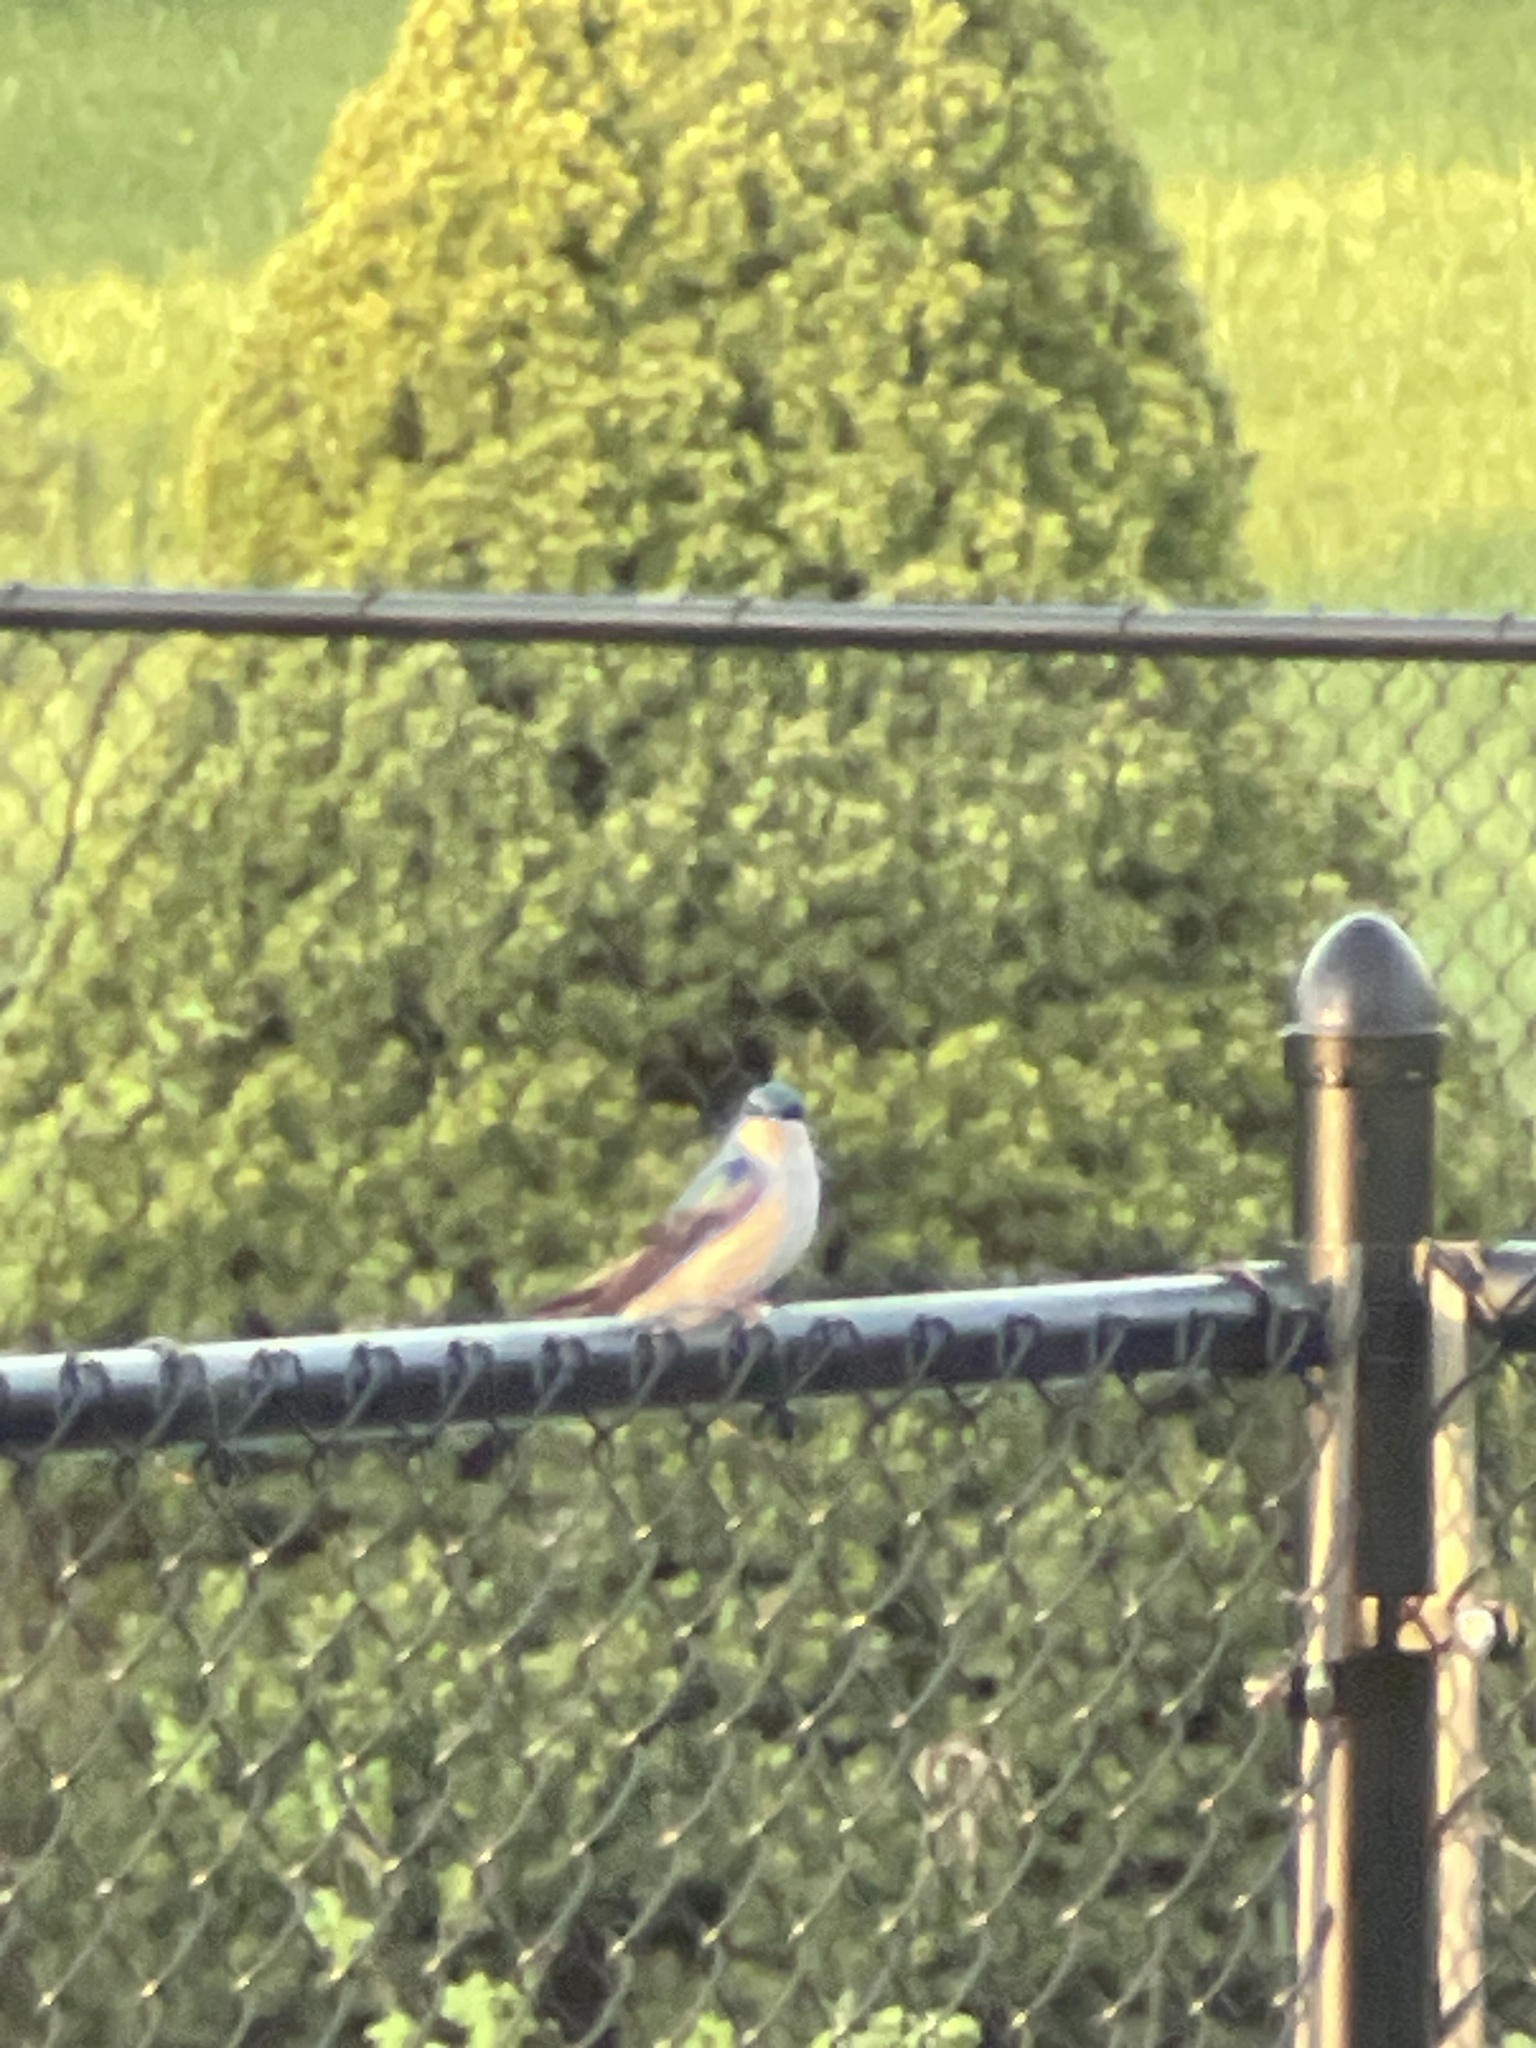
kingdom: Animalia
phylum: Chordata
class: Aves
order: Passeriformes
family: Hirundinidae
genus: Tachycineta
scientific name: Tachycineta bicolor
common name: Tree swallow
